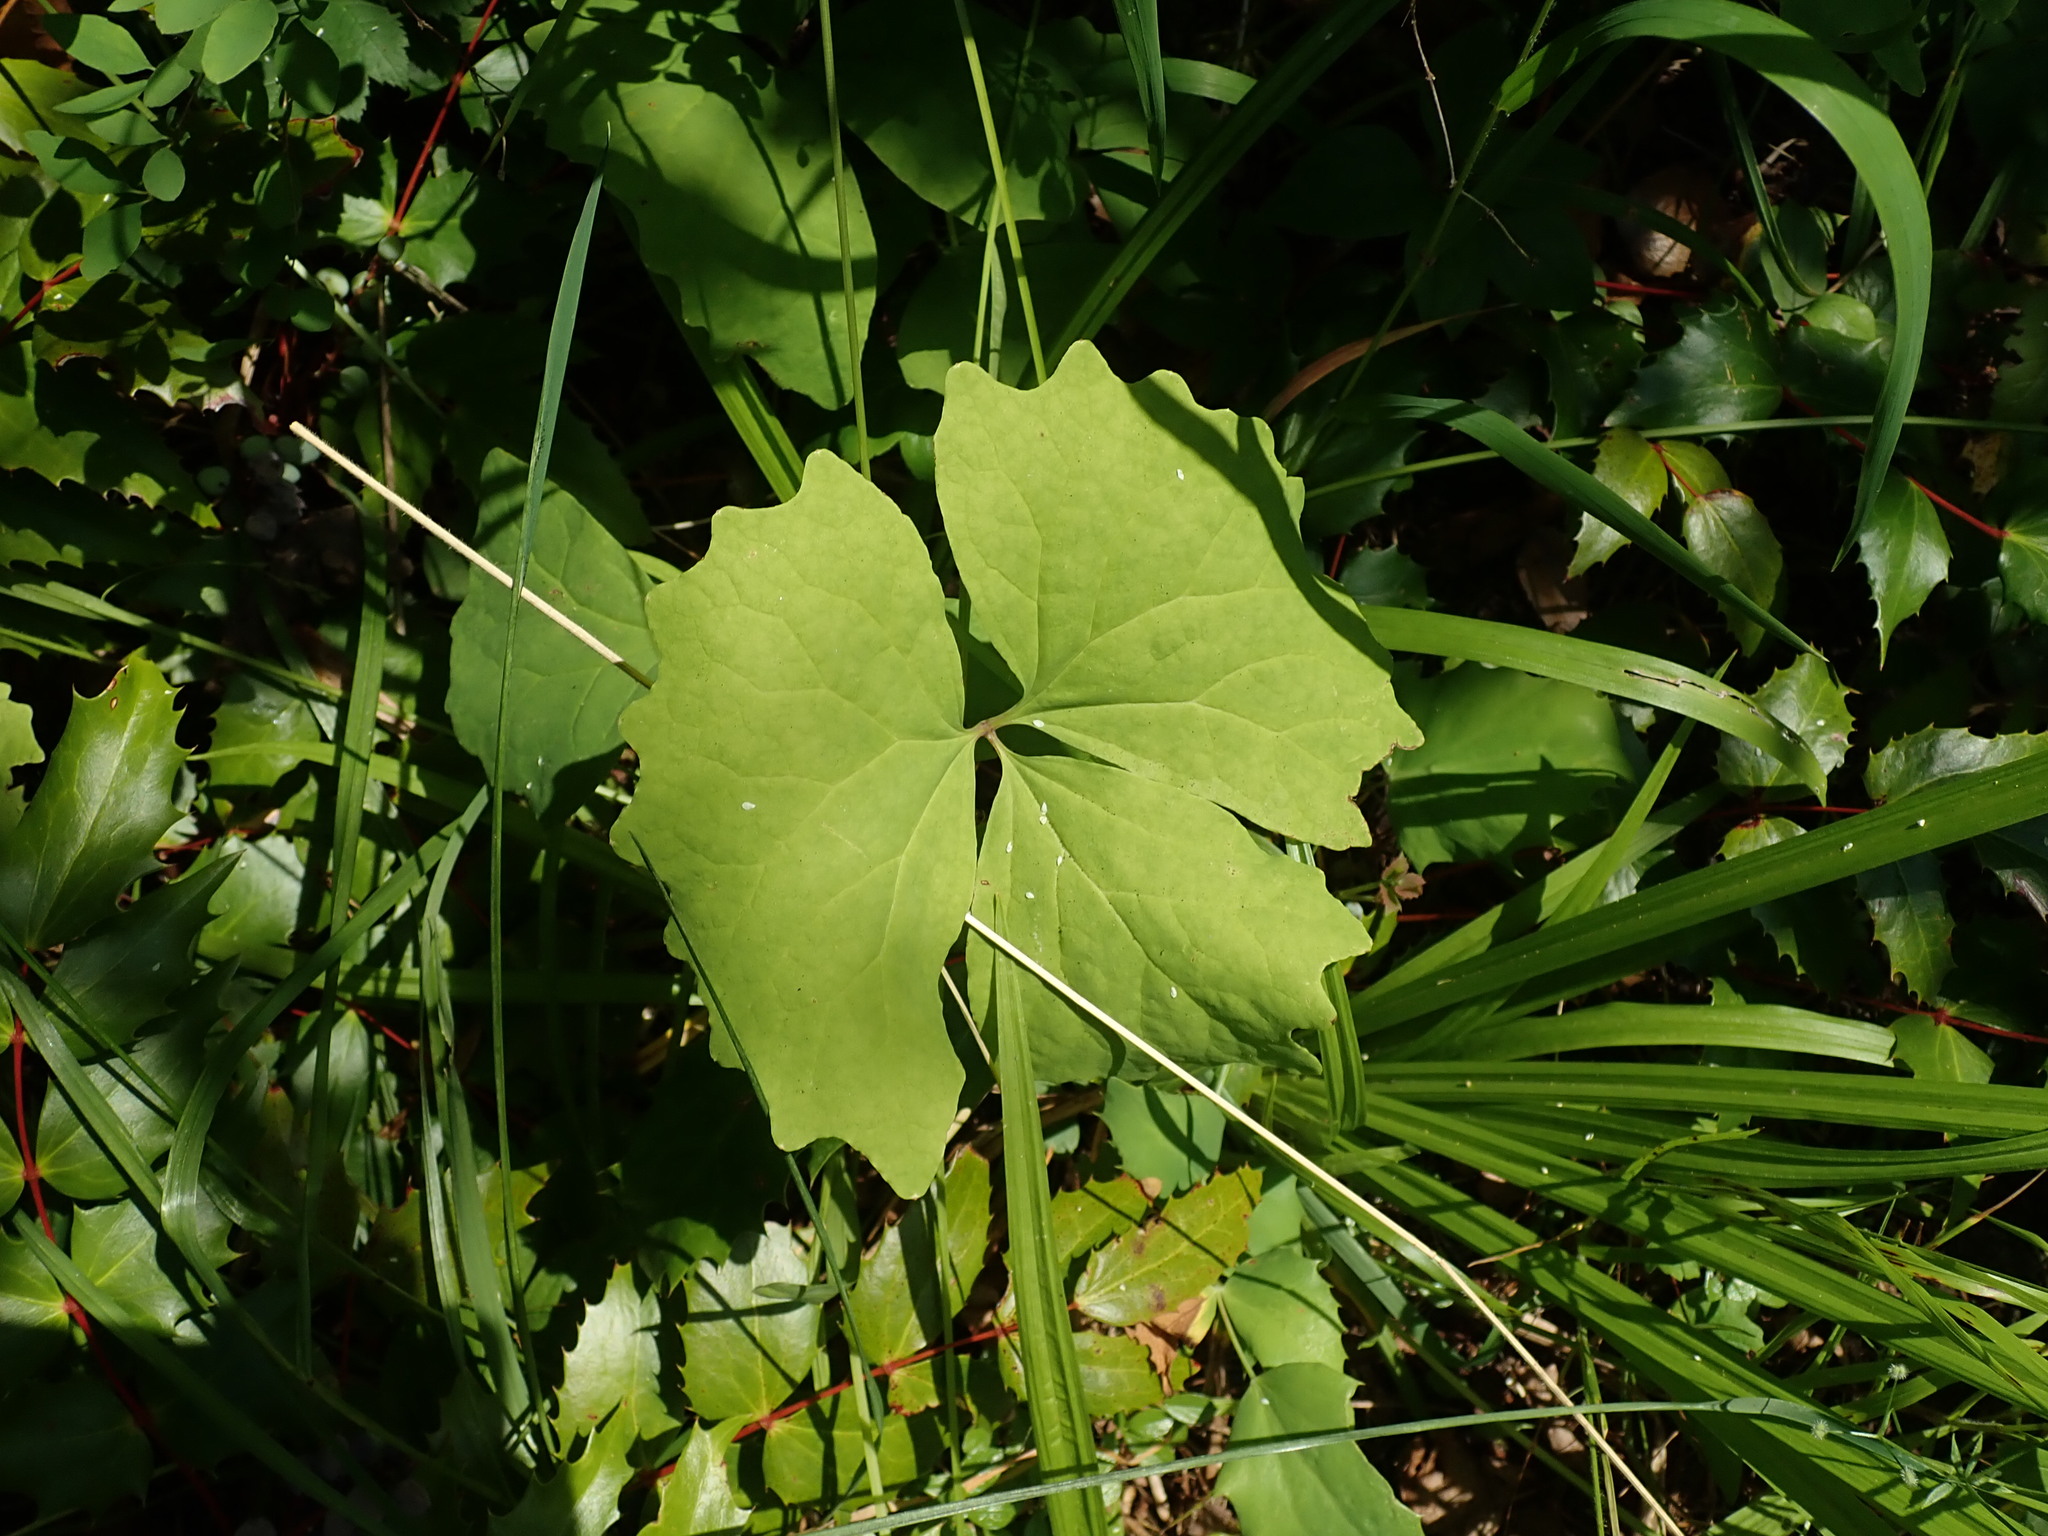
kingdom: Plantae
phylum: Tracheophyta
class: Magnoliopsida
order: Ranunculales
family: Berberidaceae
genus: Achlys
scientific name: Achlys triphylla
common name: Vanilla-leaf
